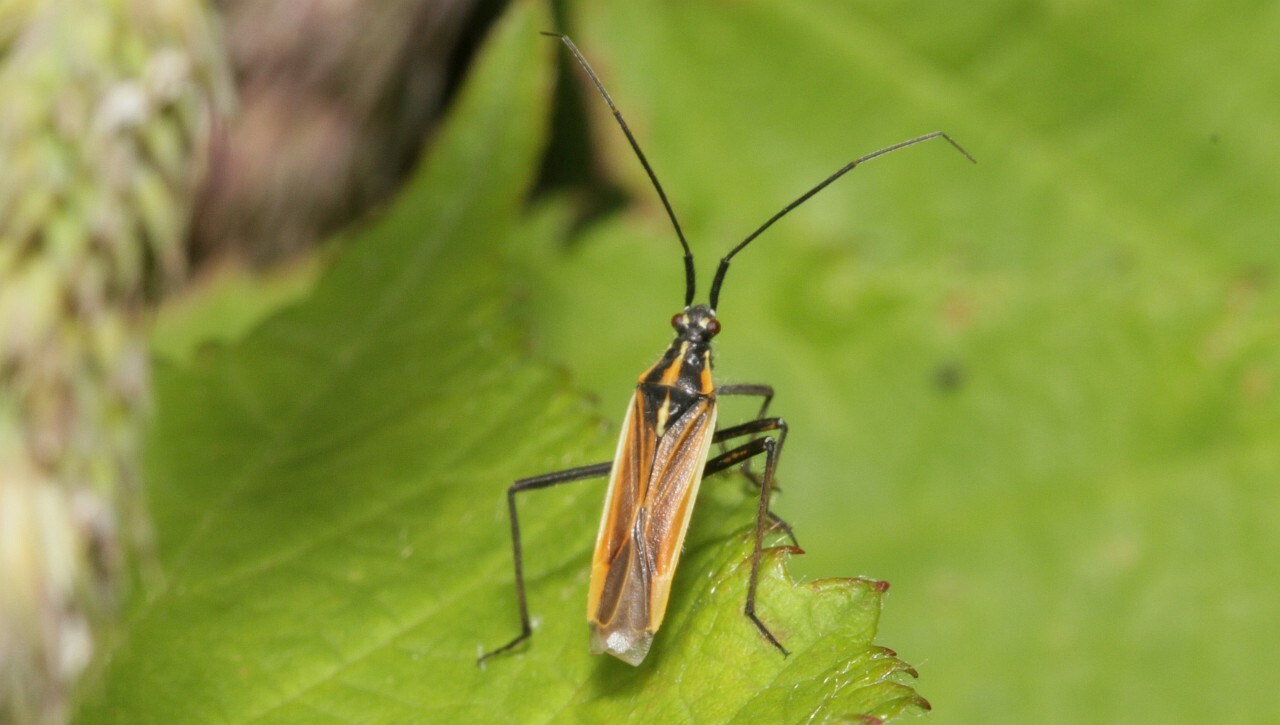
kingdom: Animalia
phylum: Arthropoda
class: Insecta
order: Hemiptera
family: Miridae
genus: Leptopterna
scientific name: Leptopterna dolabrata
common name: Meadow plant bug
